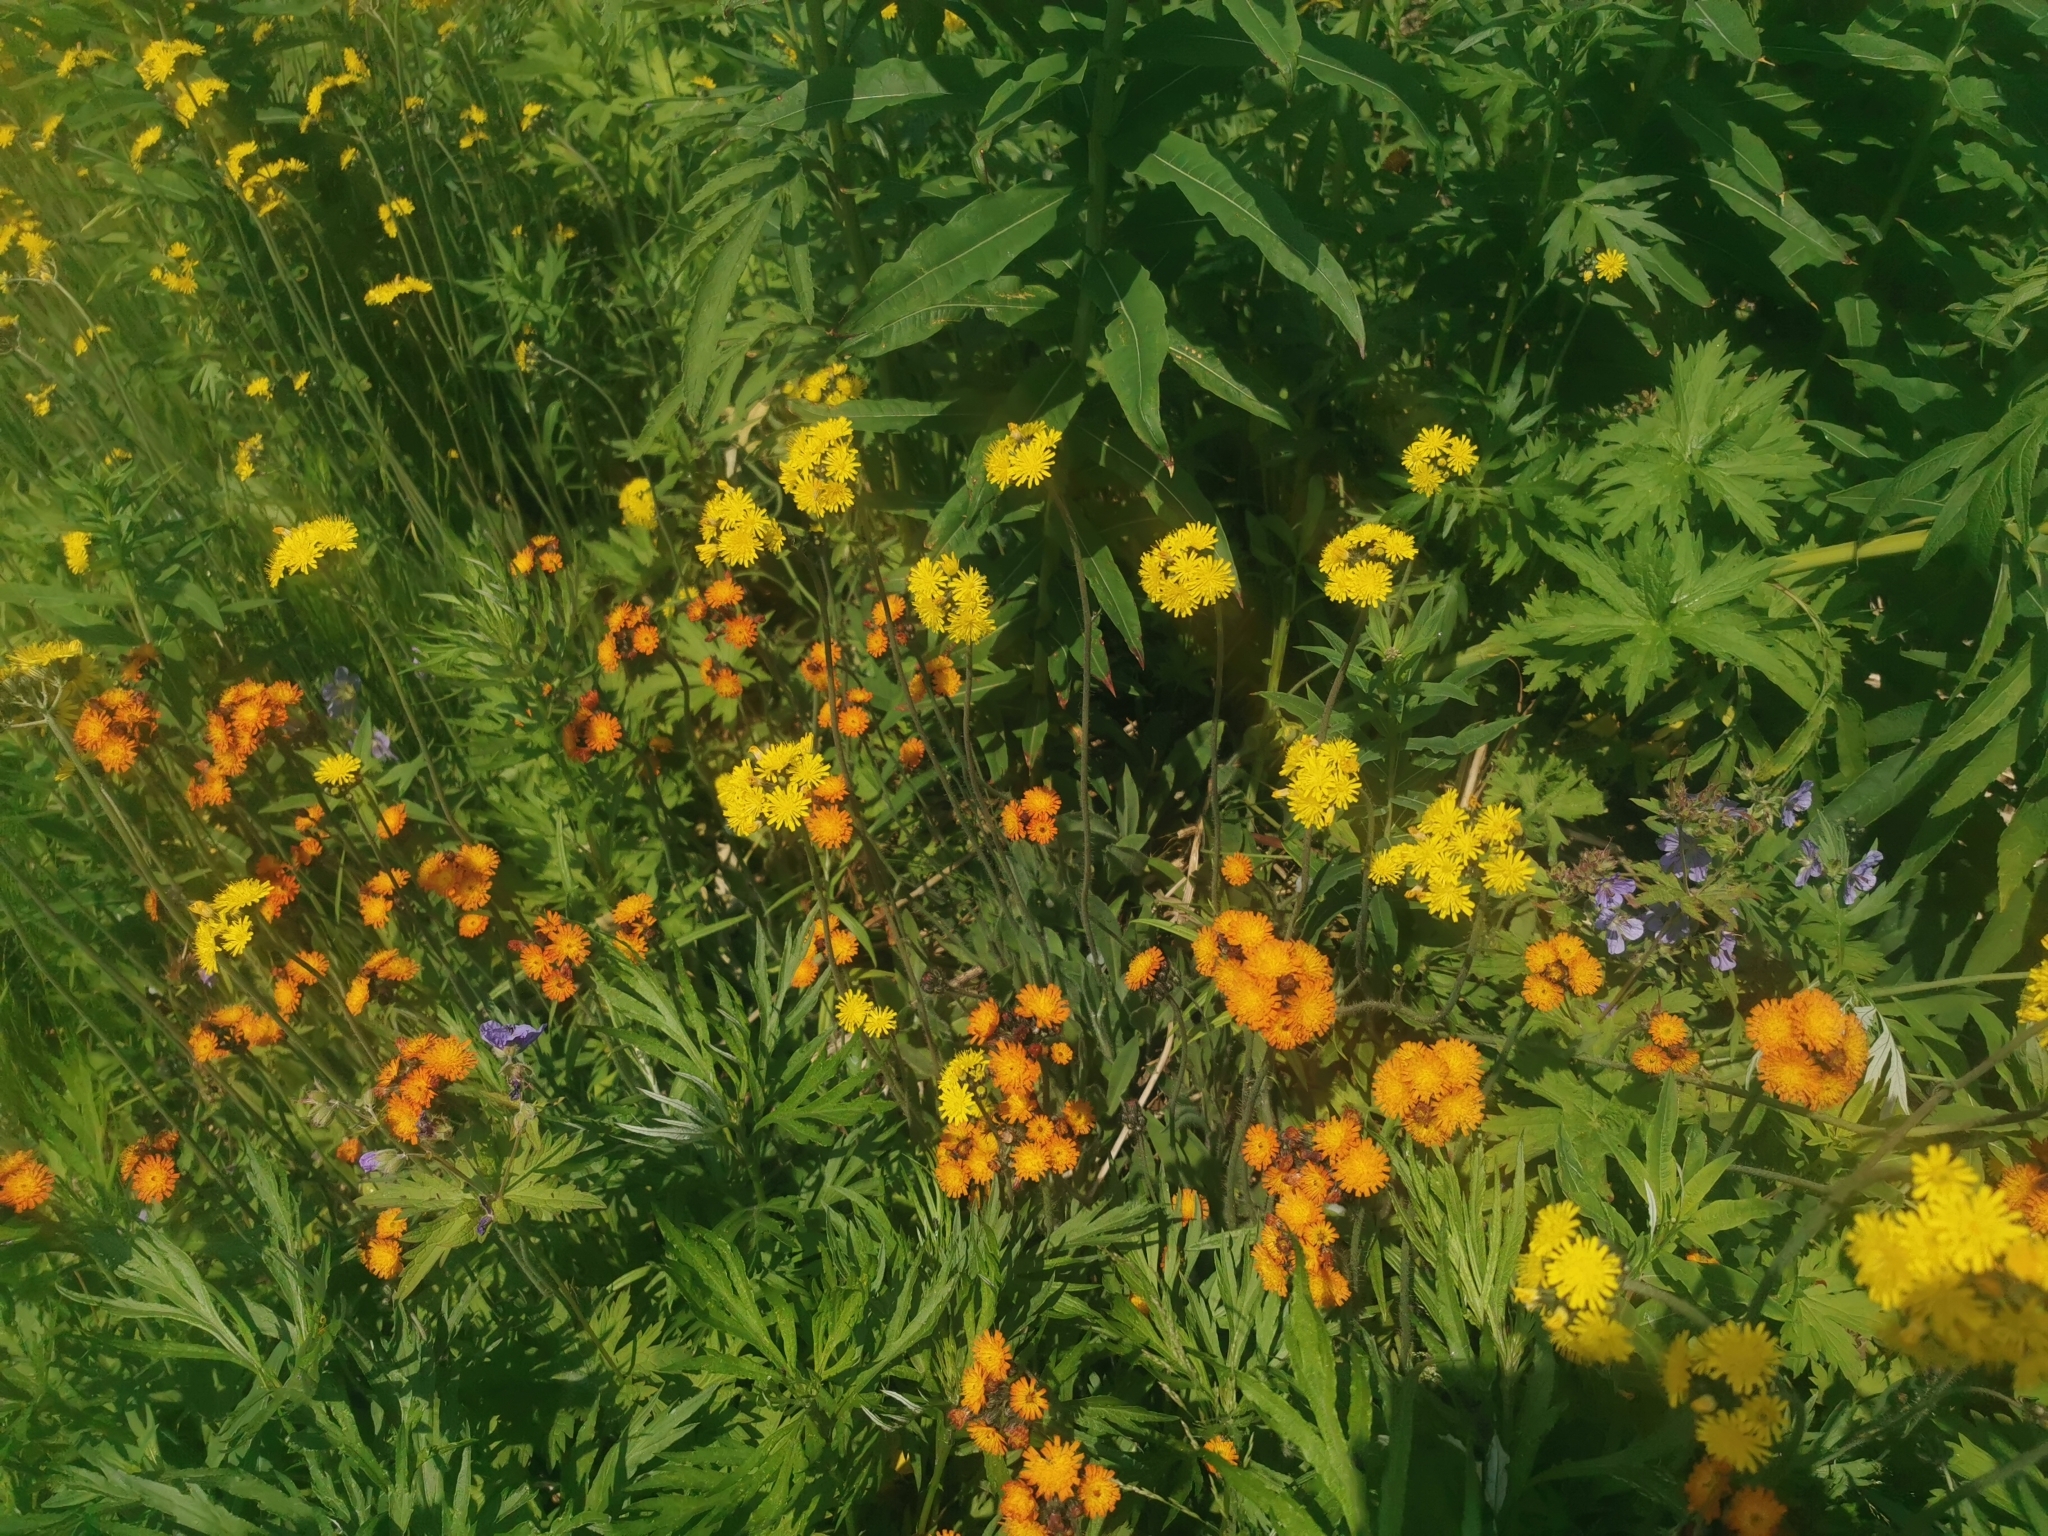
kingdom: Plantae
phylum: Tracheophyta
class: Magnoliopsida
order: Asterales
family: Asteraceae
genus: Pilosella
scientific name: Pilosella aurantiaca
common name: Fox-and-cubs
